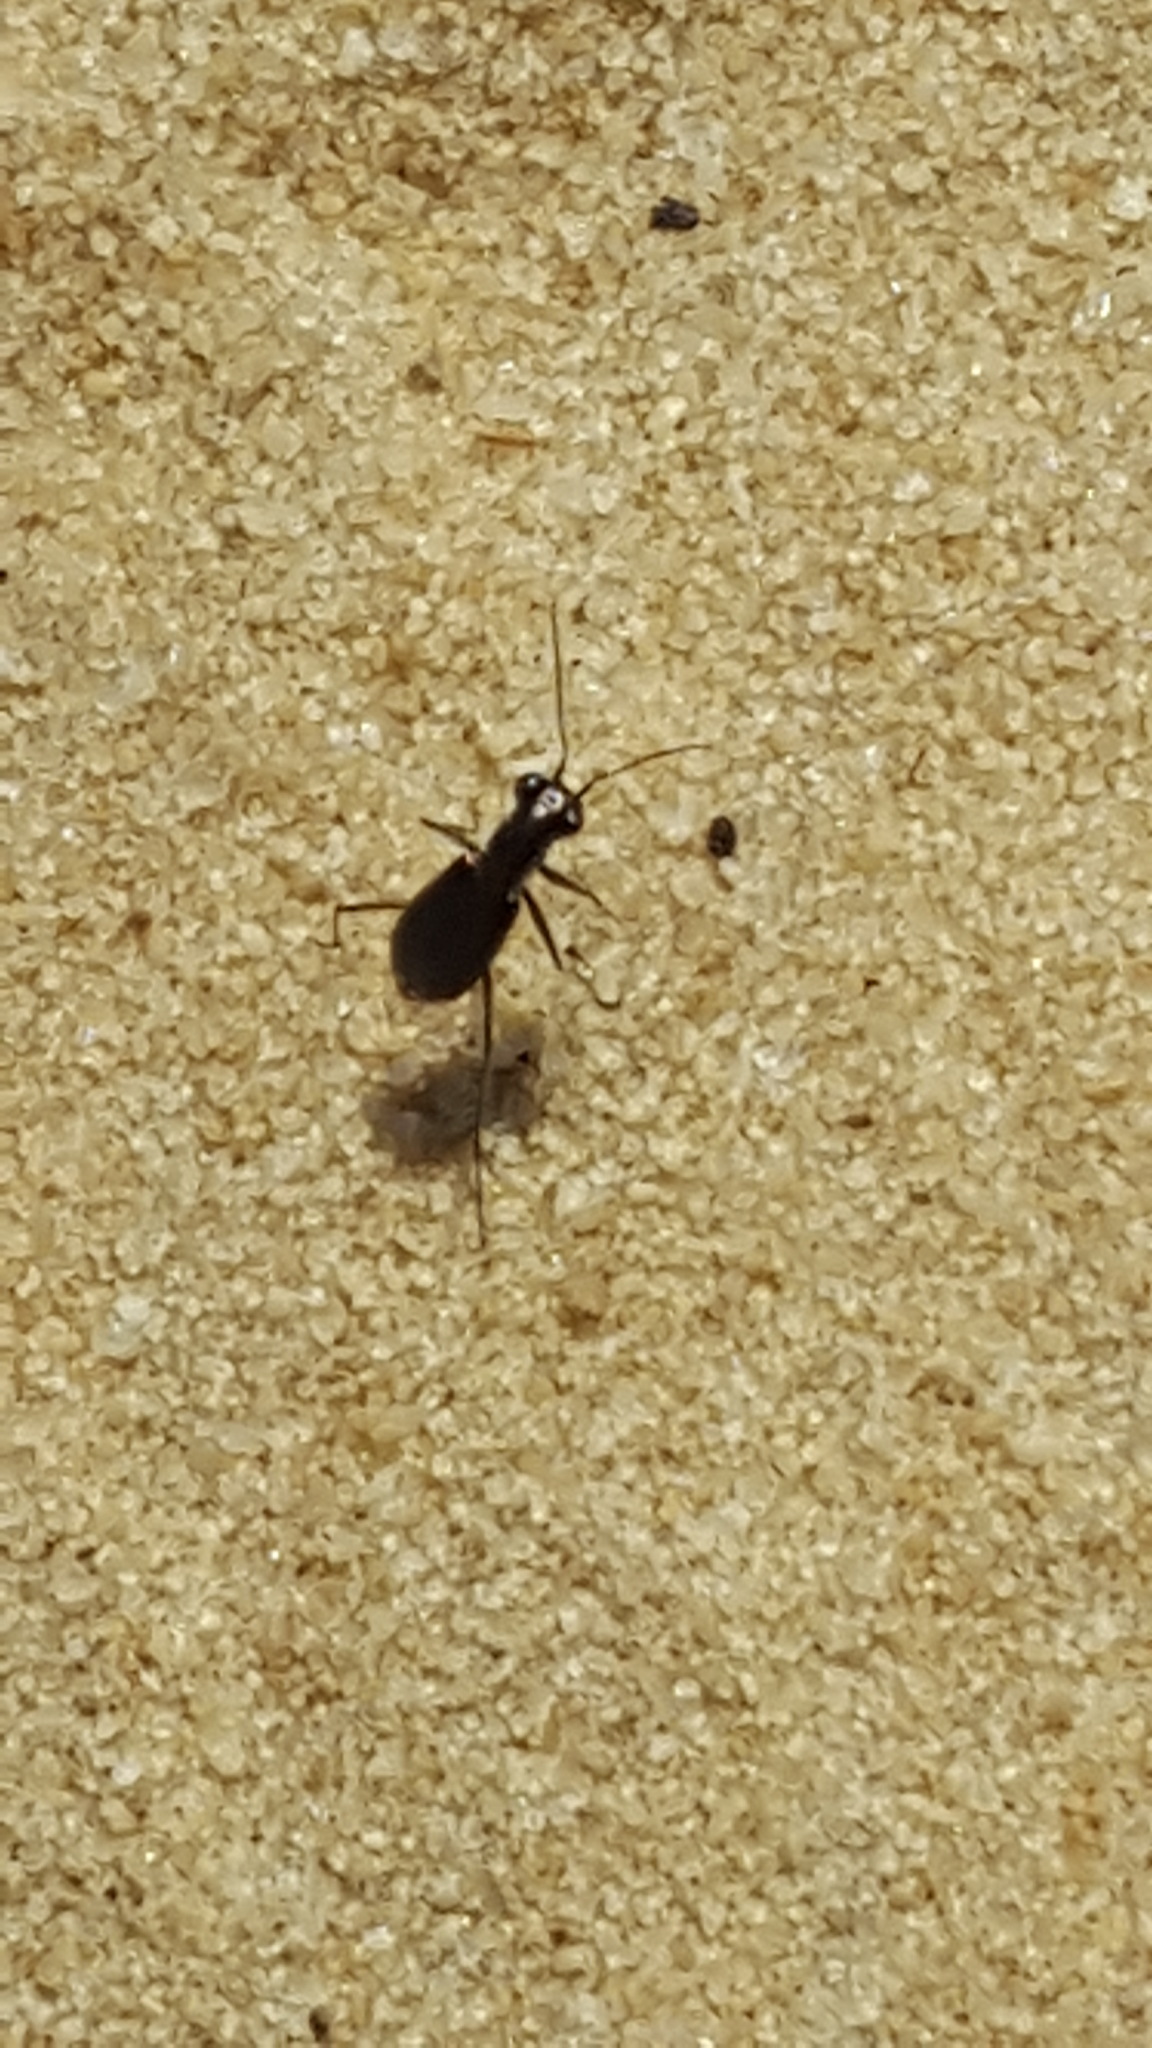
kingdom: Animalia
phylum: Arthropoda
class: Insecta
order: Coleoptera
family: Carabidae
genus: Cicindela
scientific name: Cicindela abdominalis
